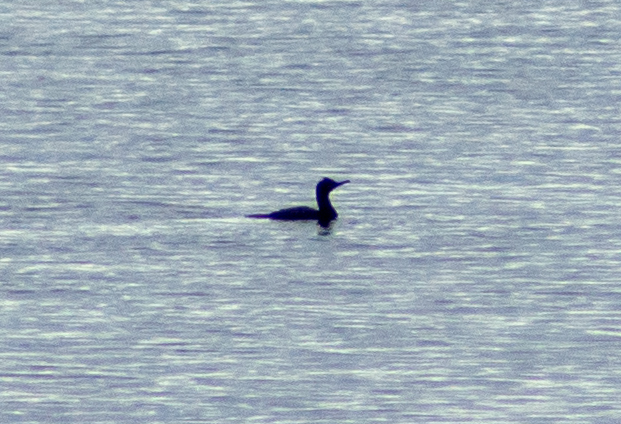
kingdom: Animalia
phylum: Chordata
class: Aves
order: Suliformes
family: Phalacrocoracidae
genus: Phalacrocorax
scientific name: Phalacrocorax aristotelis
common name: European shag
